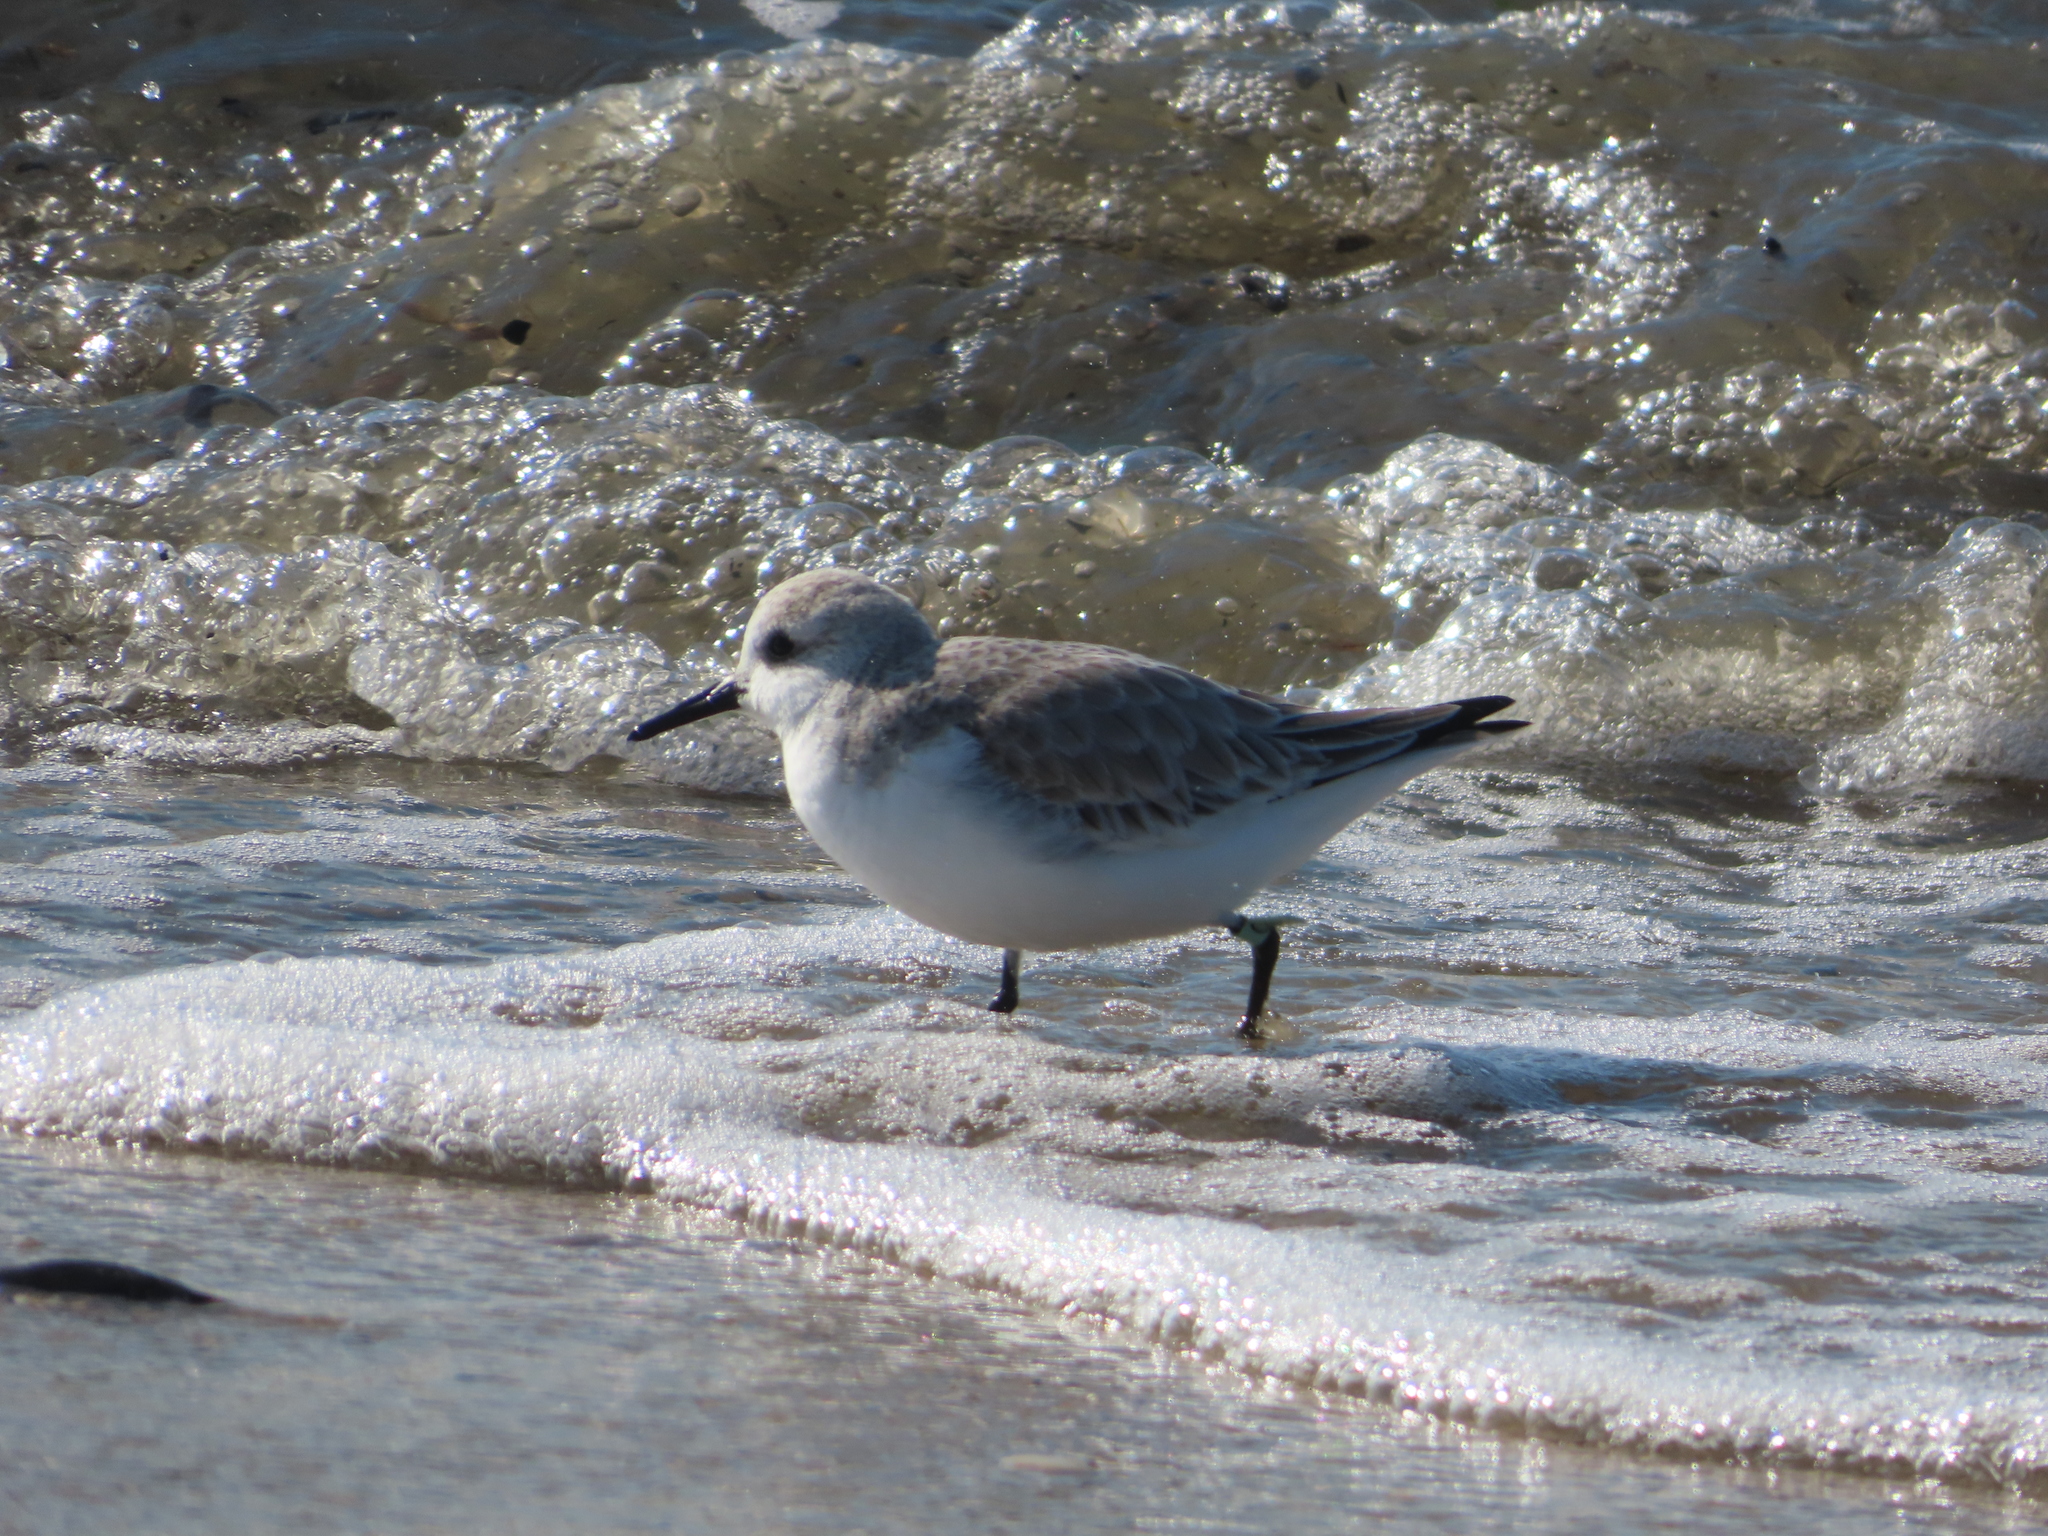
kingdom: Animalia
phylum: Chordata
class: Aves
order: Charadriiformes
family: Scolopacidae
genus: Calidris
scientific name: Calidris alba
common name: Sanderling
